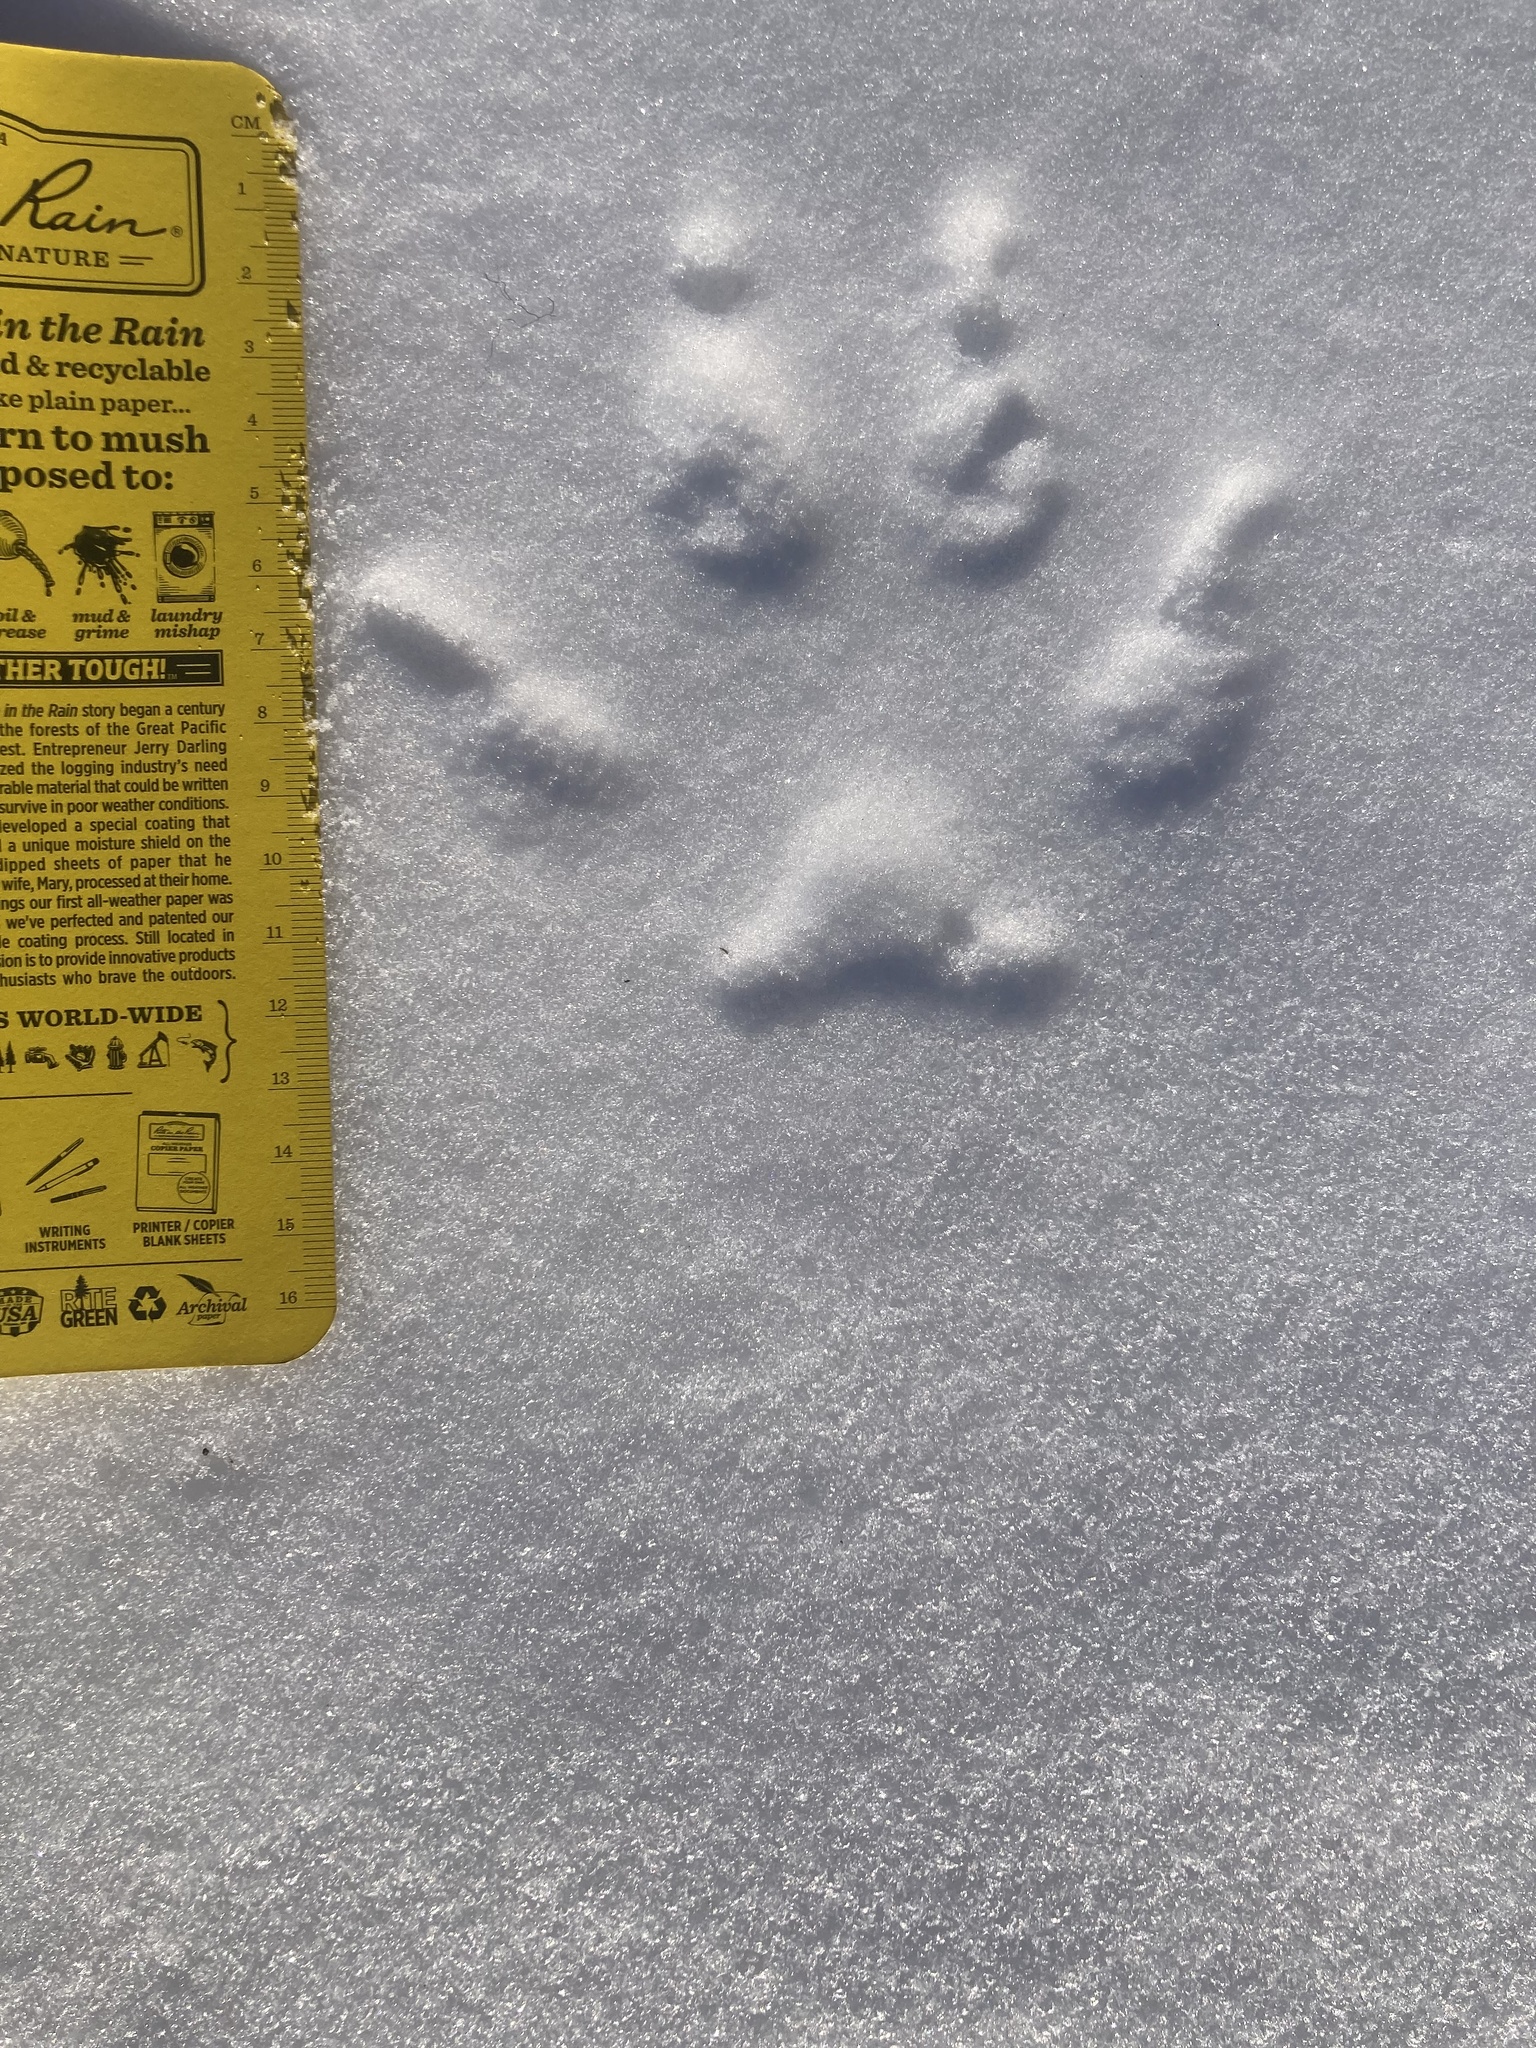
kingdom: Animalia
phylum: Chordata
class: Mammalia
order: Carnivora
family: Canidae
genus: Canis
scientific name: Canis lupus
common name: Gray wolf
